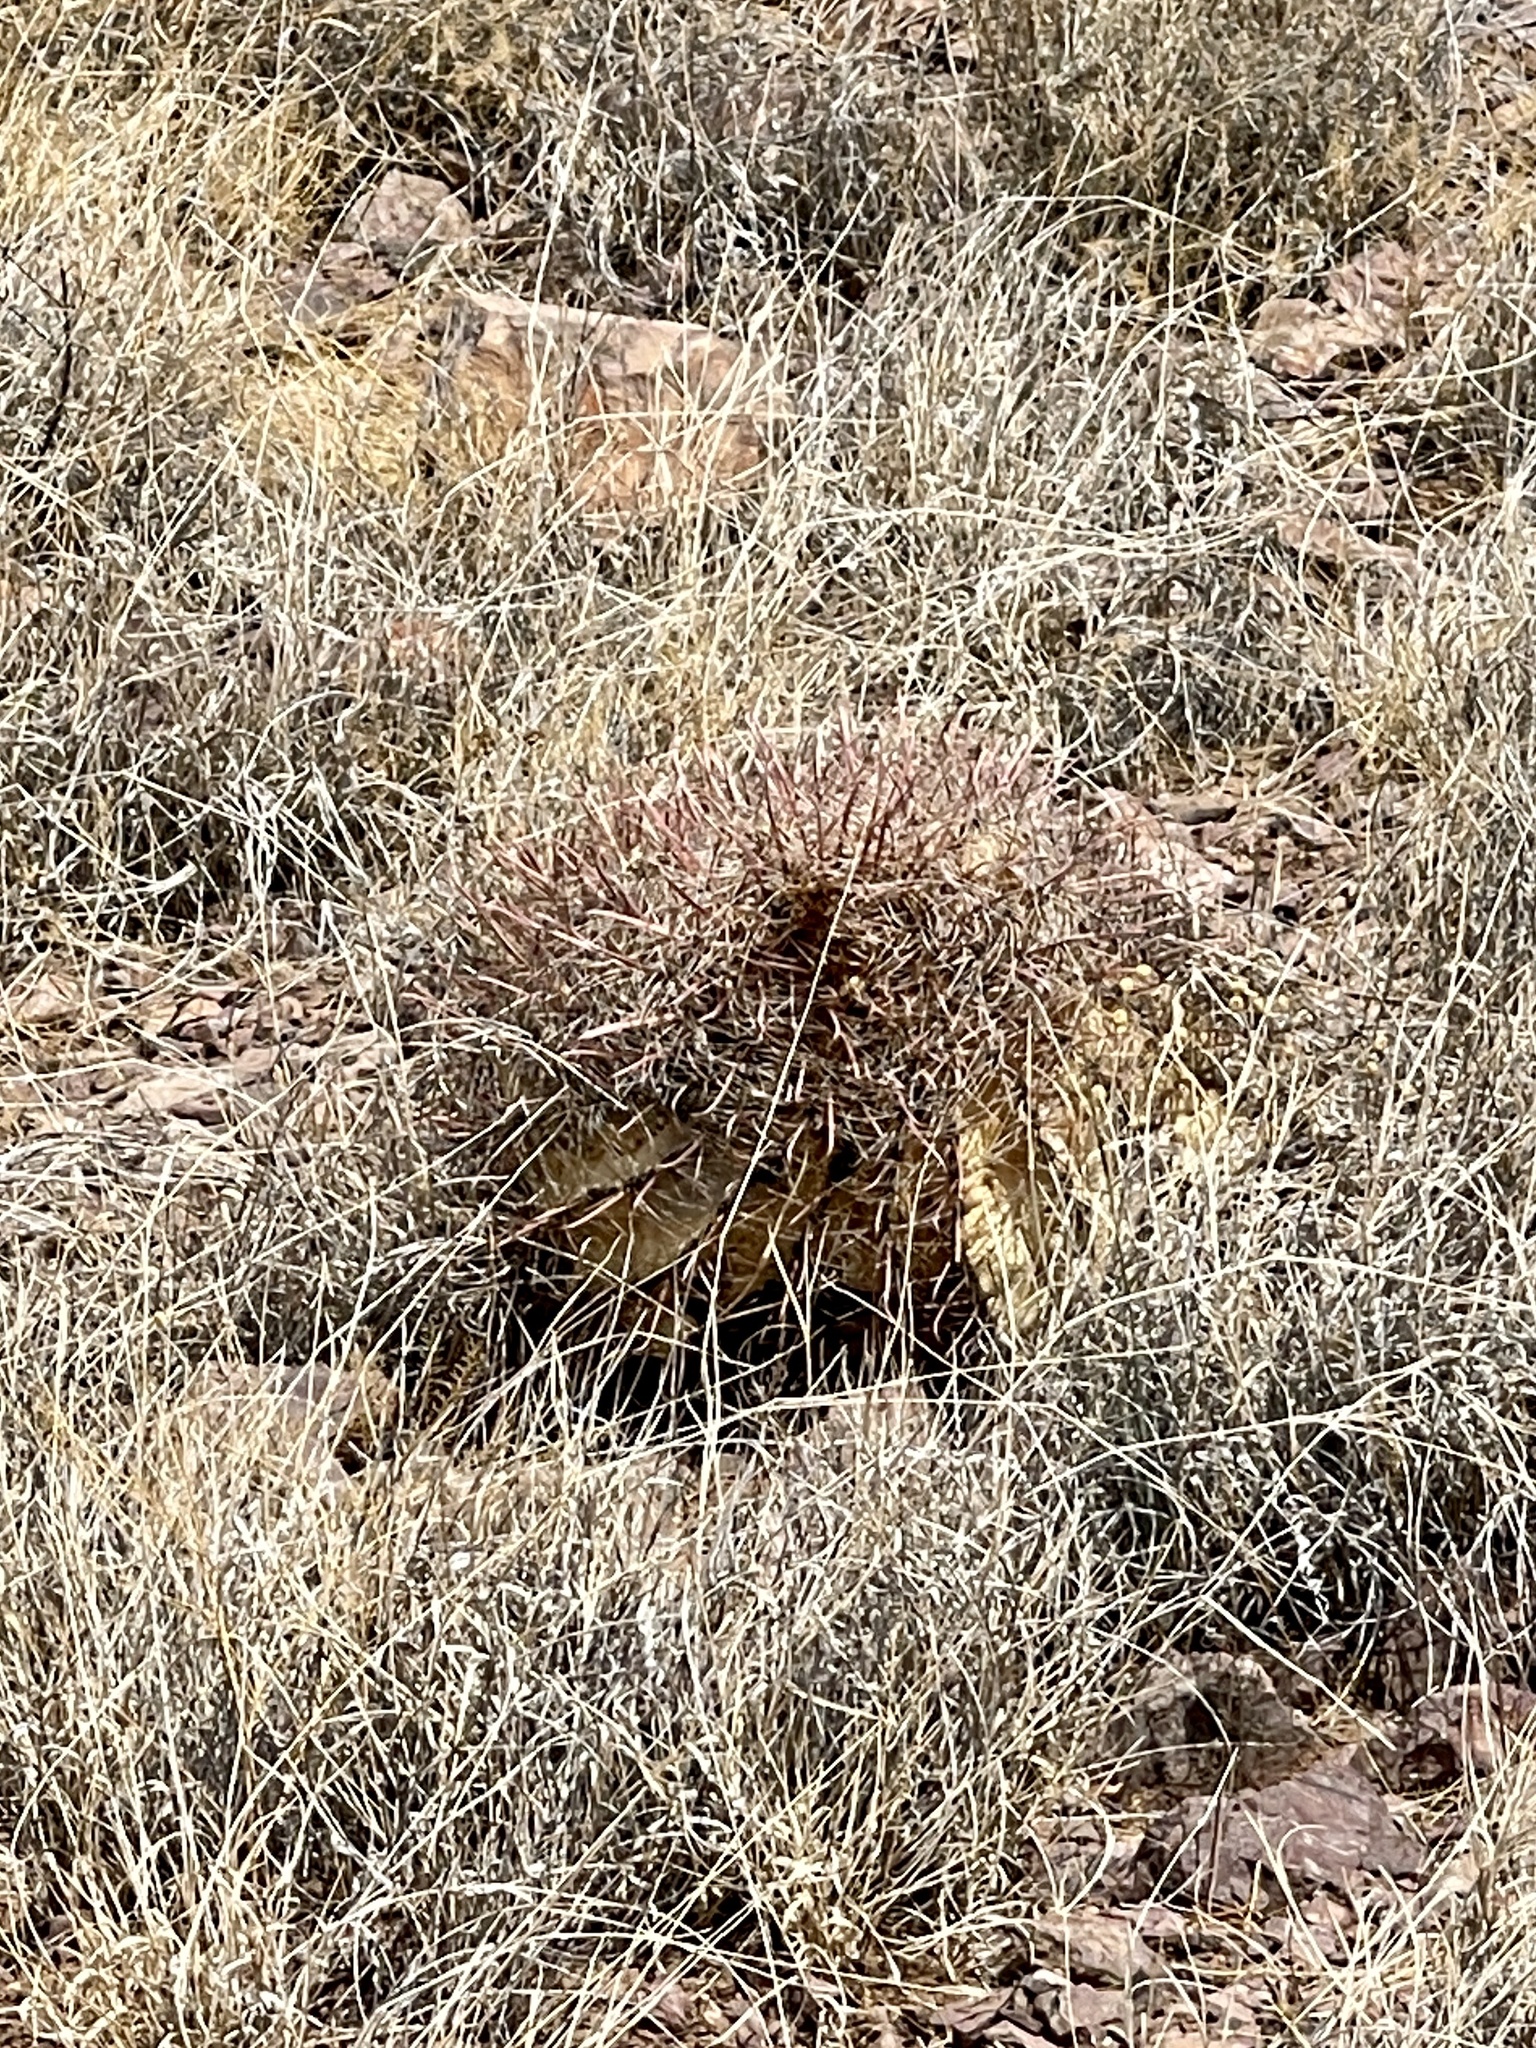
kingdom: Plantae
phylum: Tracheophyta
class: Magnoliopsida
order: Caryophyllales
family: Cactaceae
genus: Ferocactus
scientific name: Ferocactus wislizeni
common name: Candy barrel cactus
